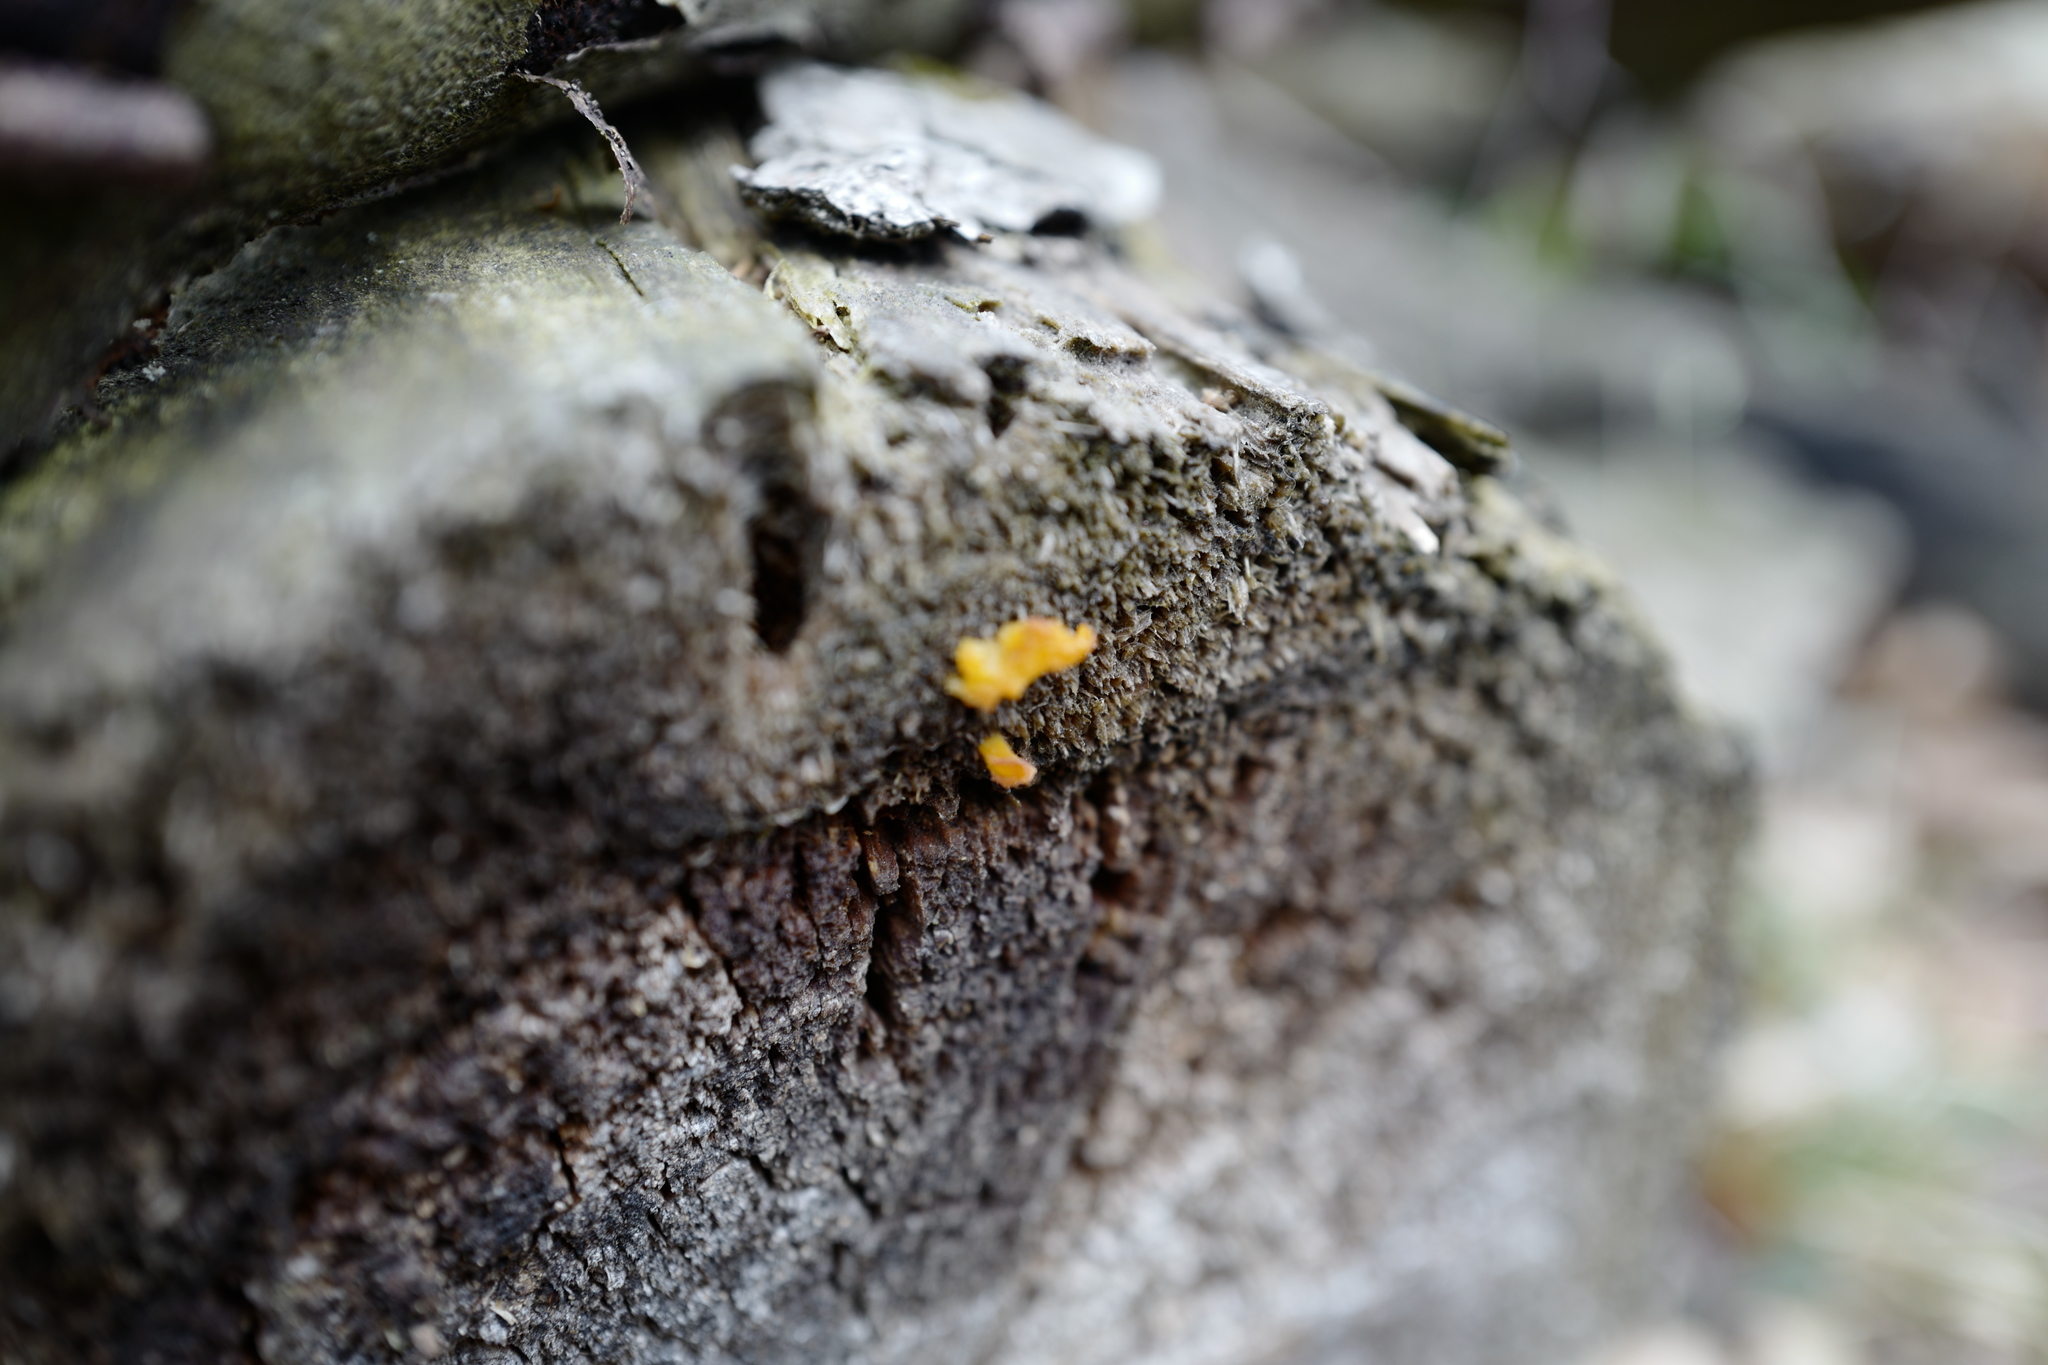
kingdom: Fungi
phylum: Basidiomycota
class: Dacrymycetes
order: Dacrymycetales
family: Dacrymycetaceae
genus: Dacrymyces
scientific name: Dacrymyces chrysospermus
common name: Orange jelly spot
